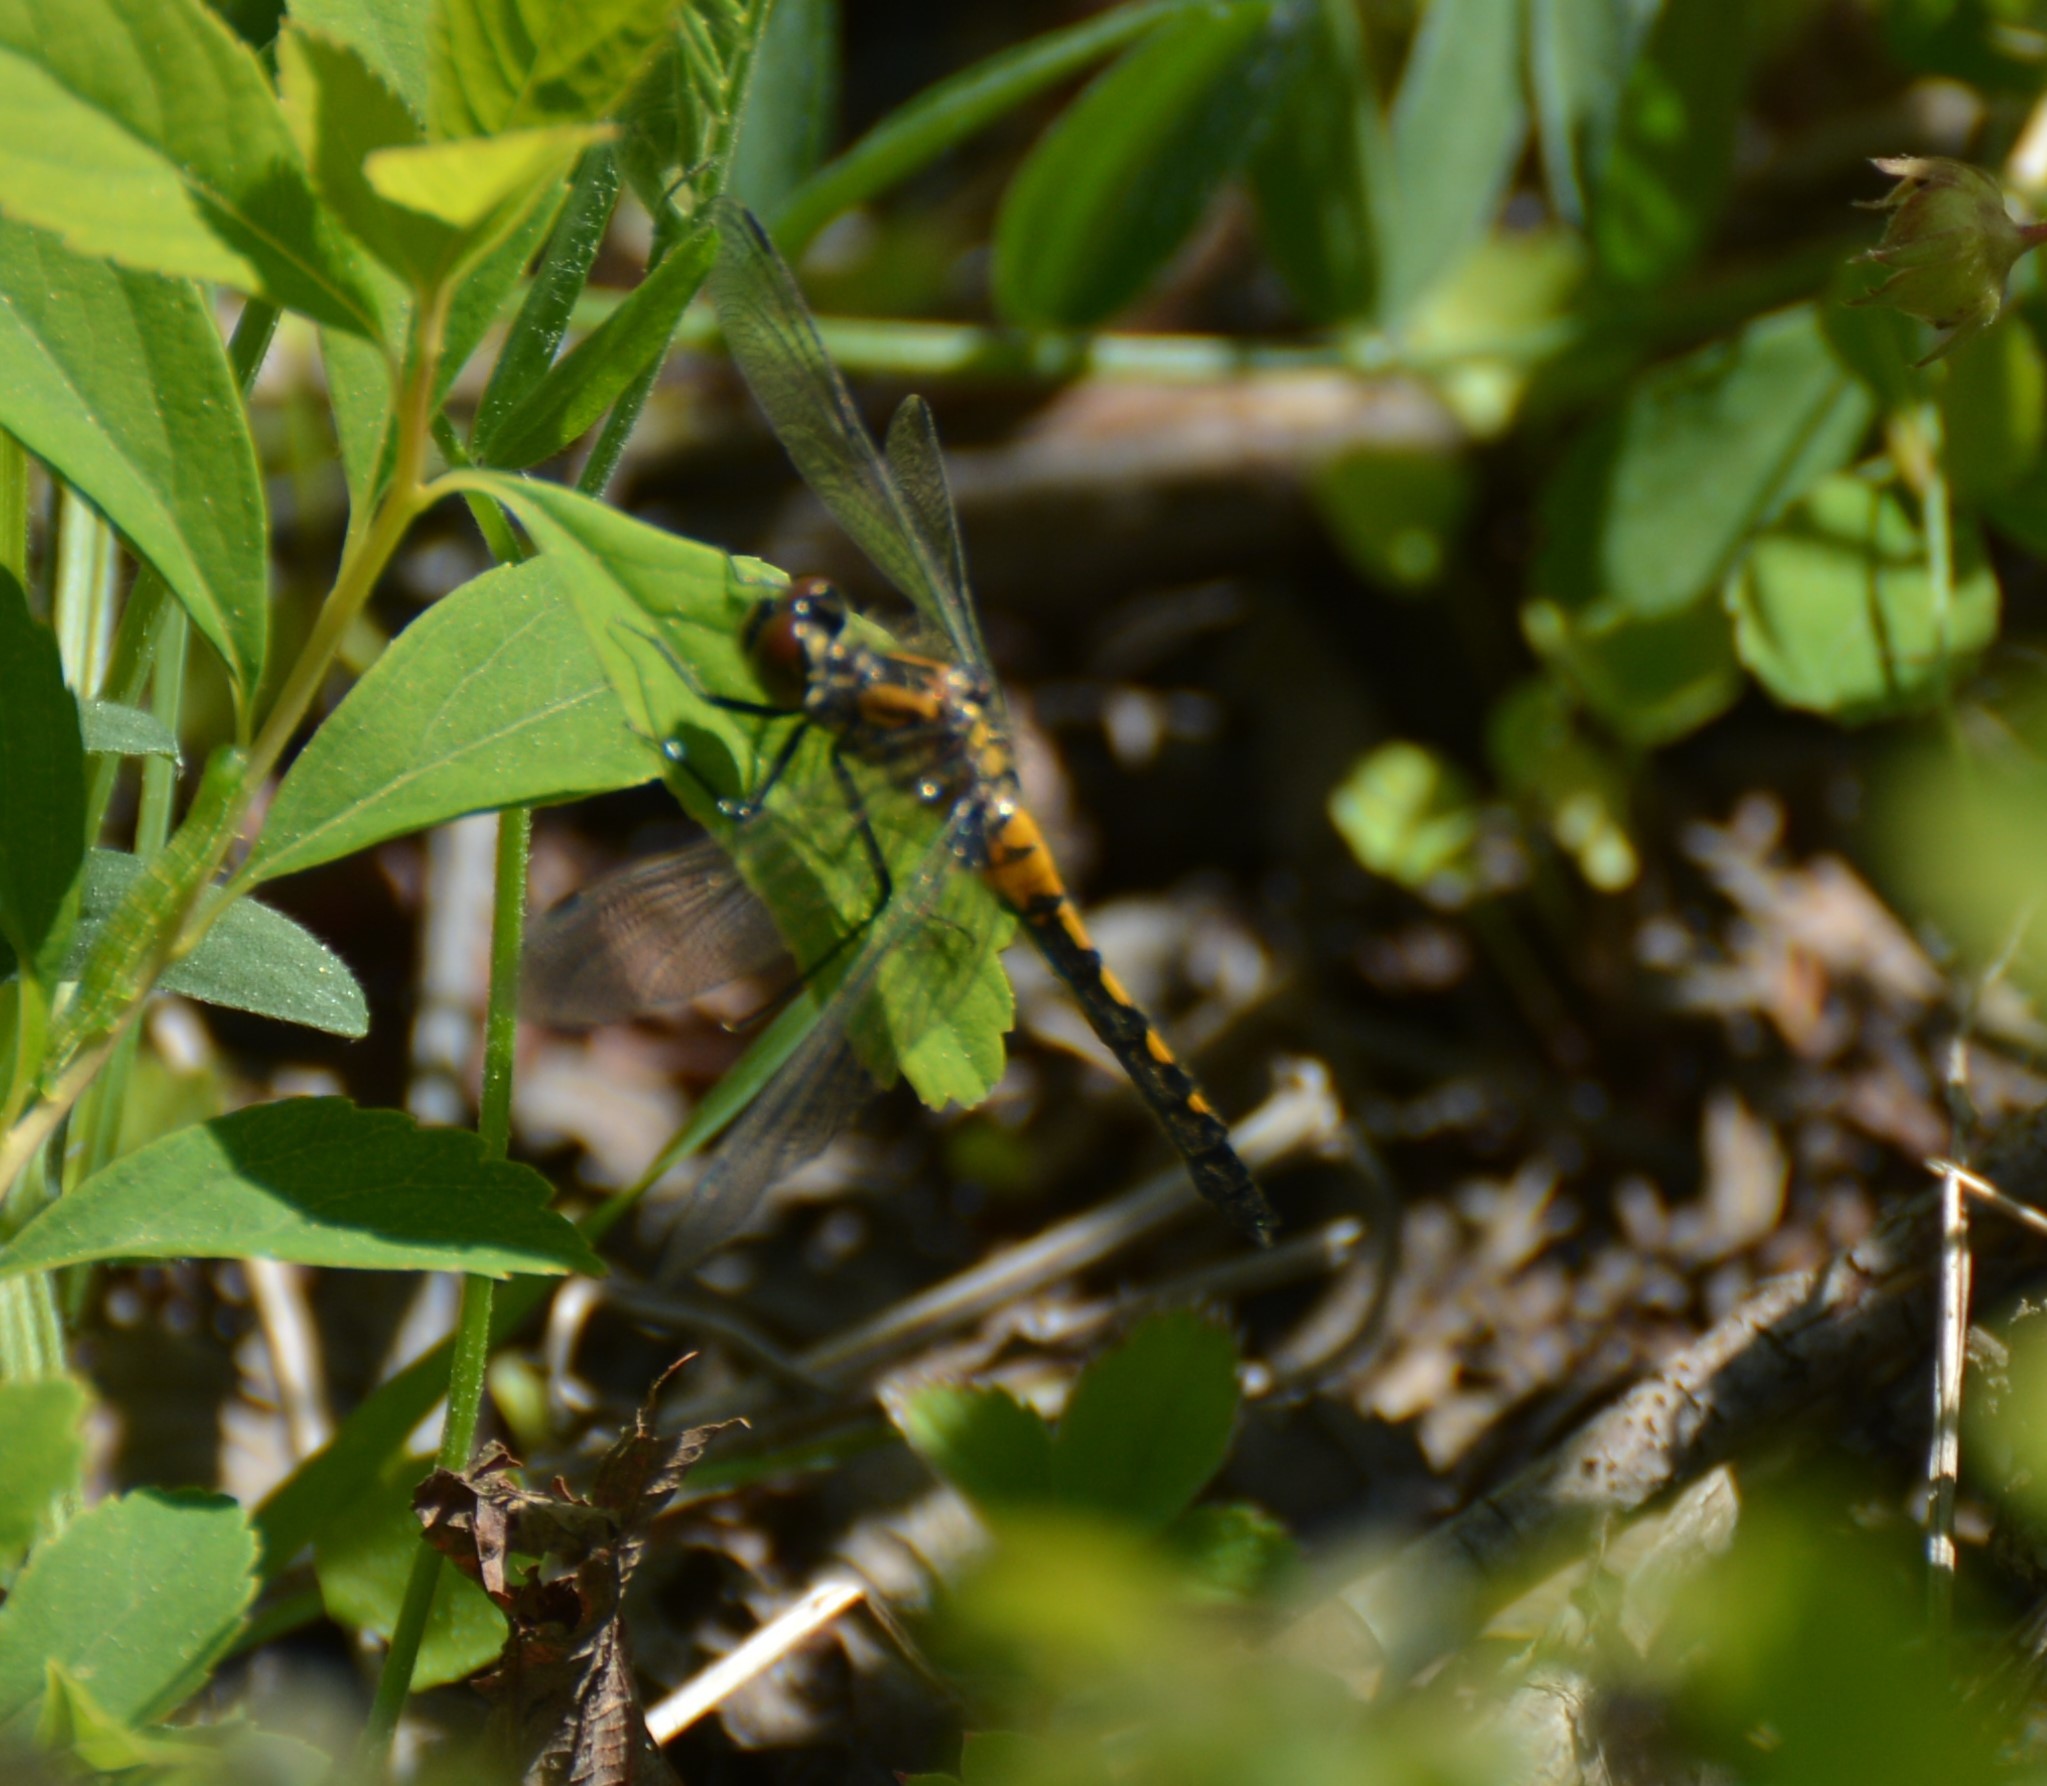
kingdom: Animalia
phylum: Arthropoda
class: Insecta
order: Odonata
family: Libellulidae
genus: Leucorrhinia
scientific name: Leucorrhinia hudsonica
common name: Hudsonian whiteface
